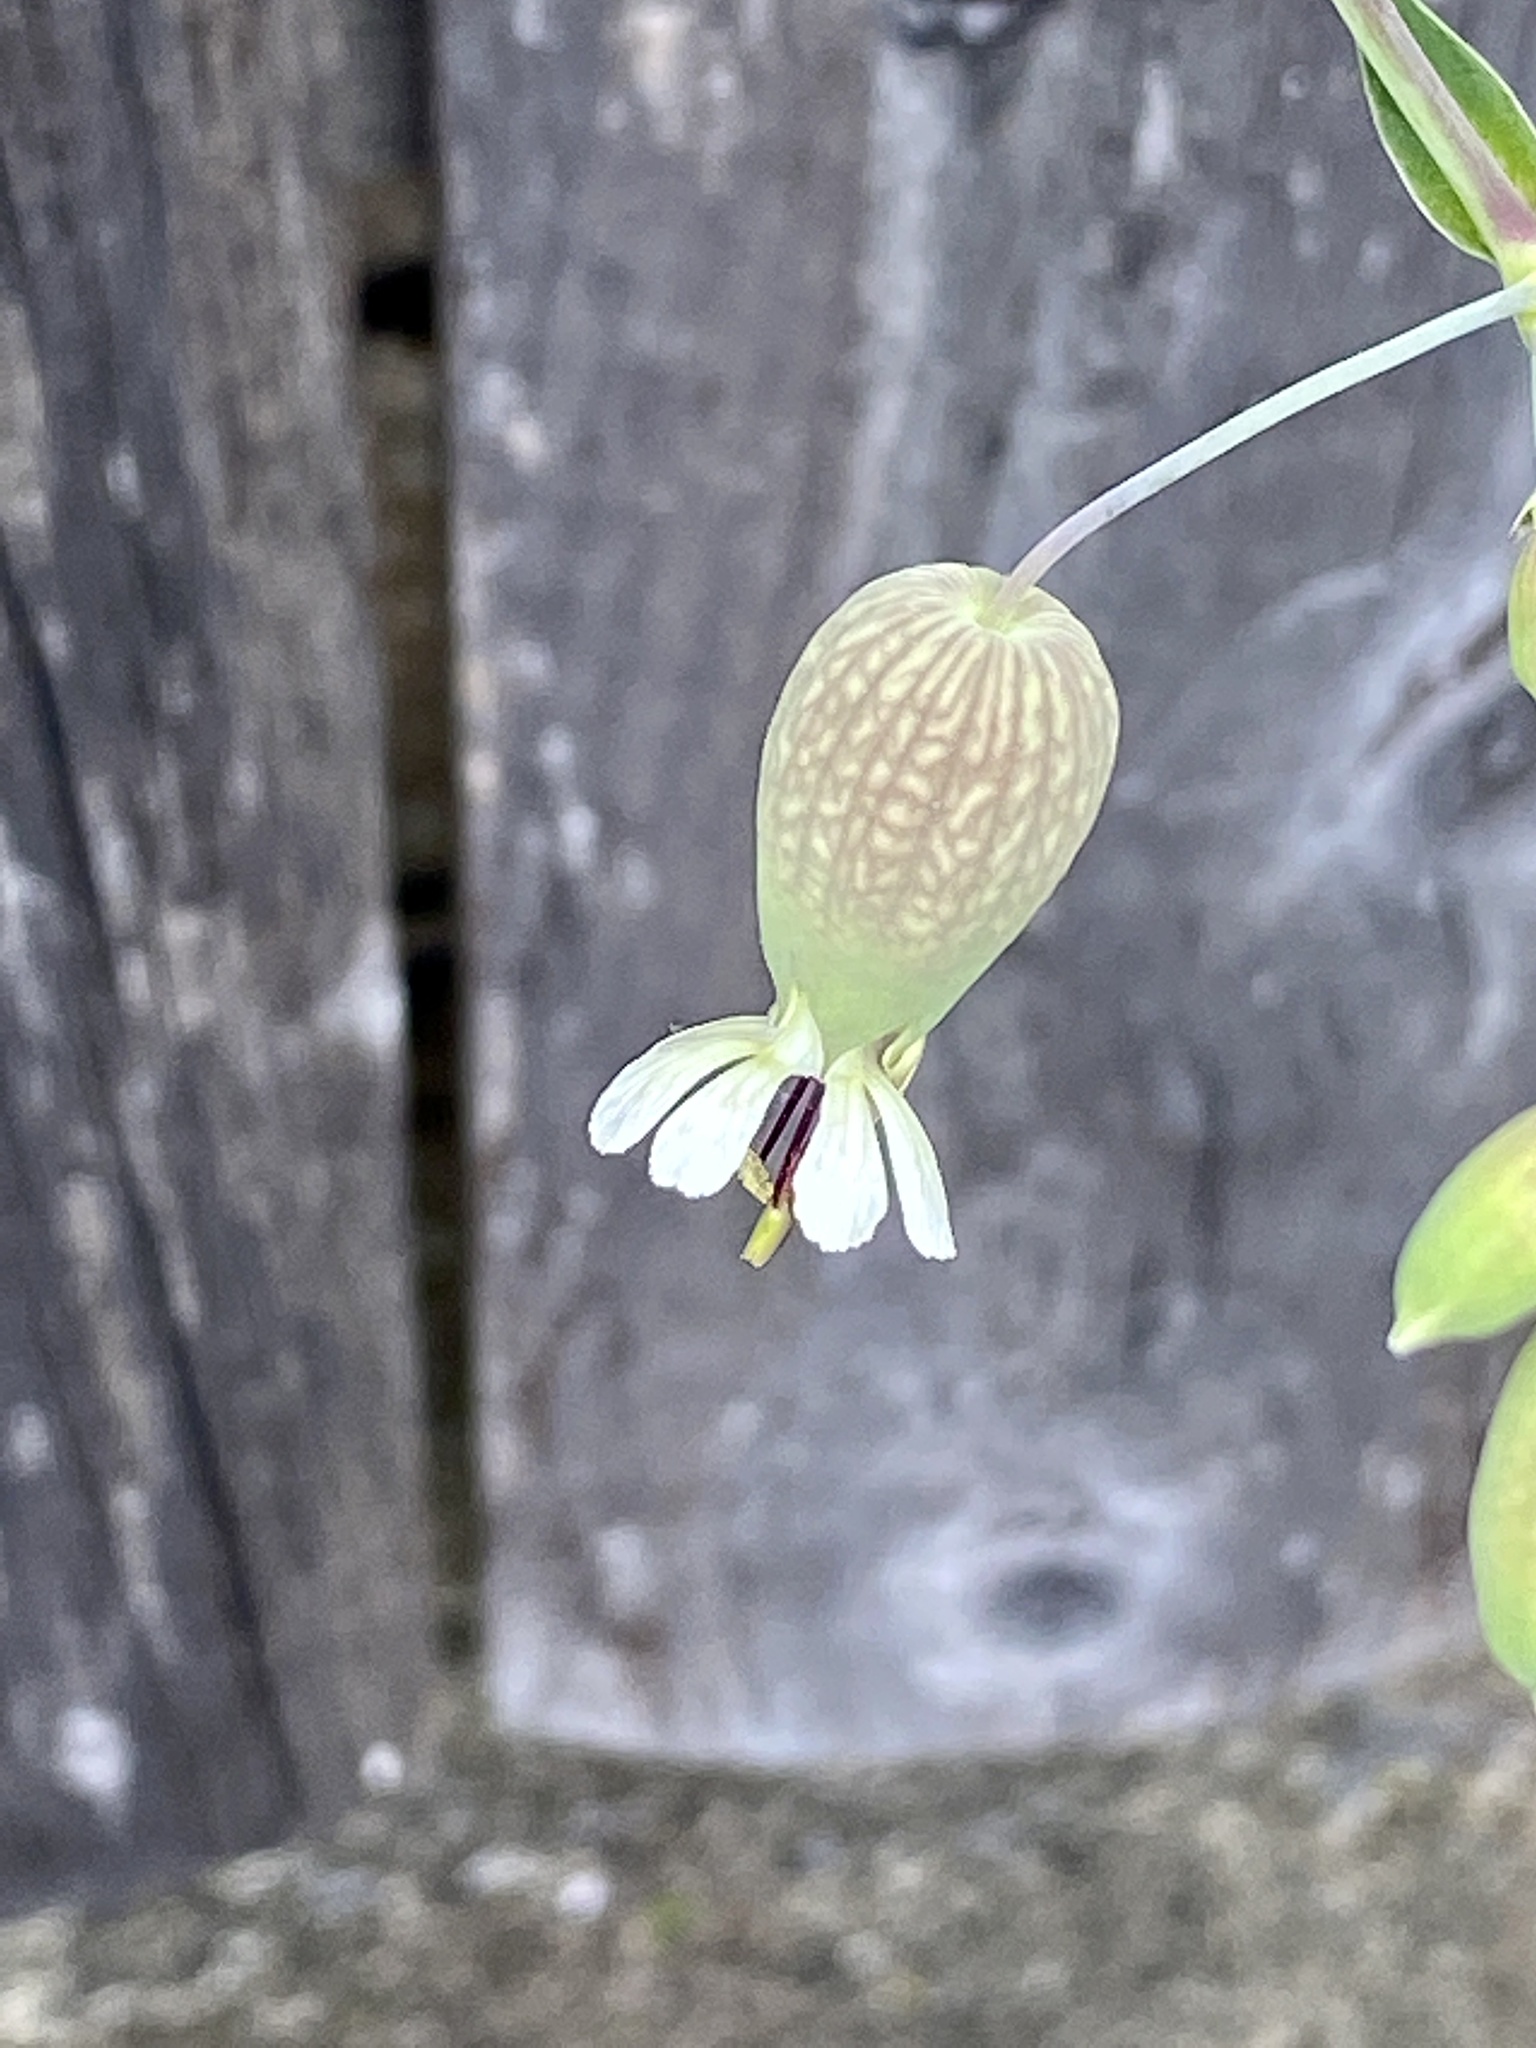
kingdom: Plantae
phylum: Tracheophyta
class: Magnoliopsida
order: Caryophyllales
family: Caryophyllaceae
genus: Silene
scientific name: Silene vulgaris
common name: Bladder campion
